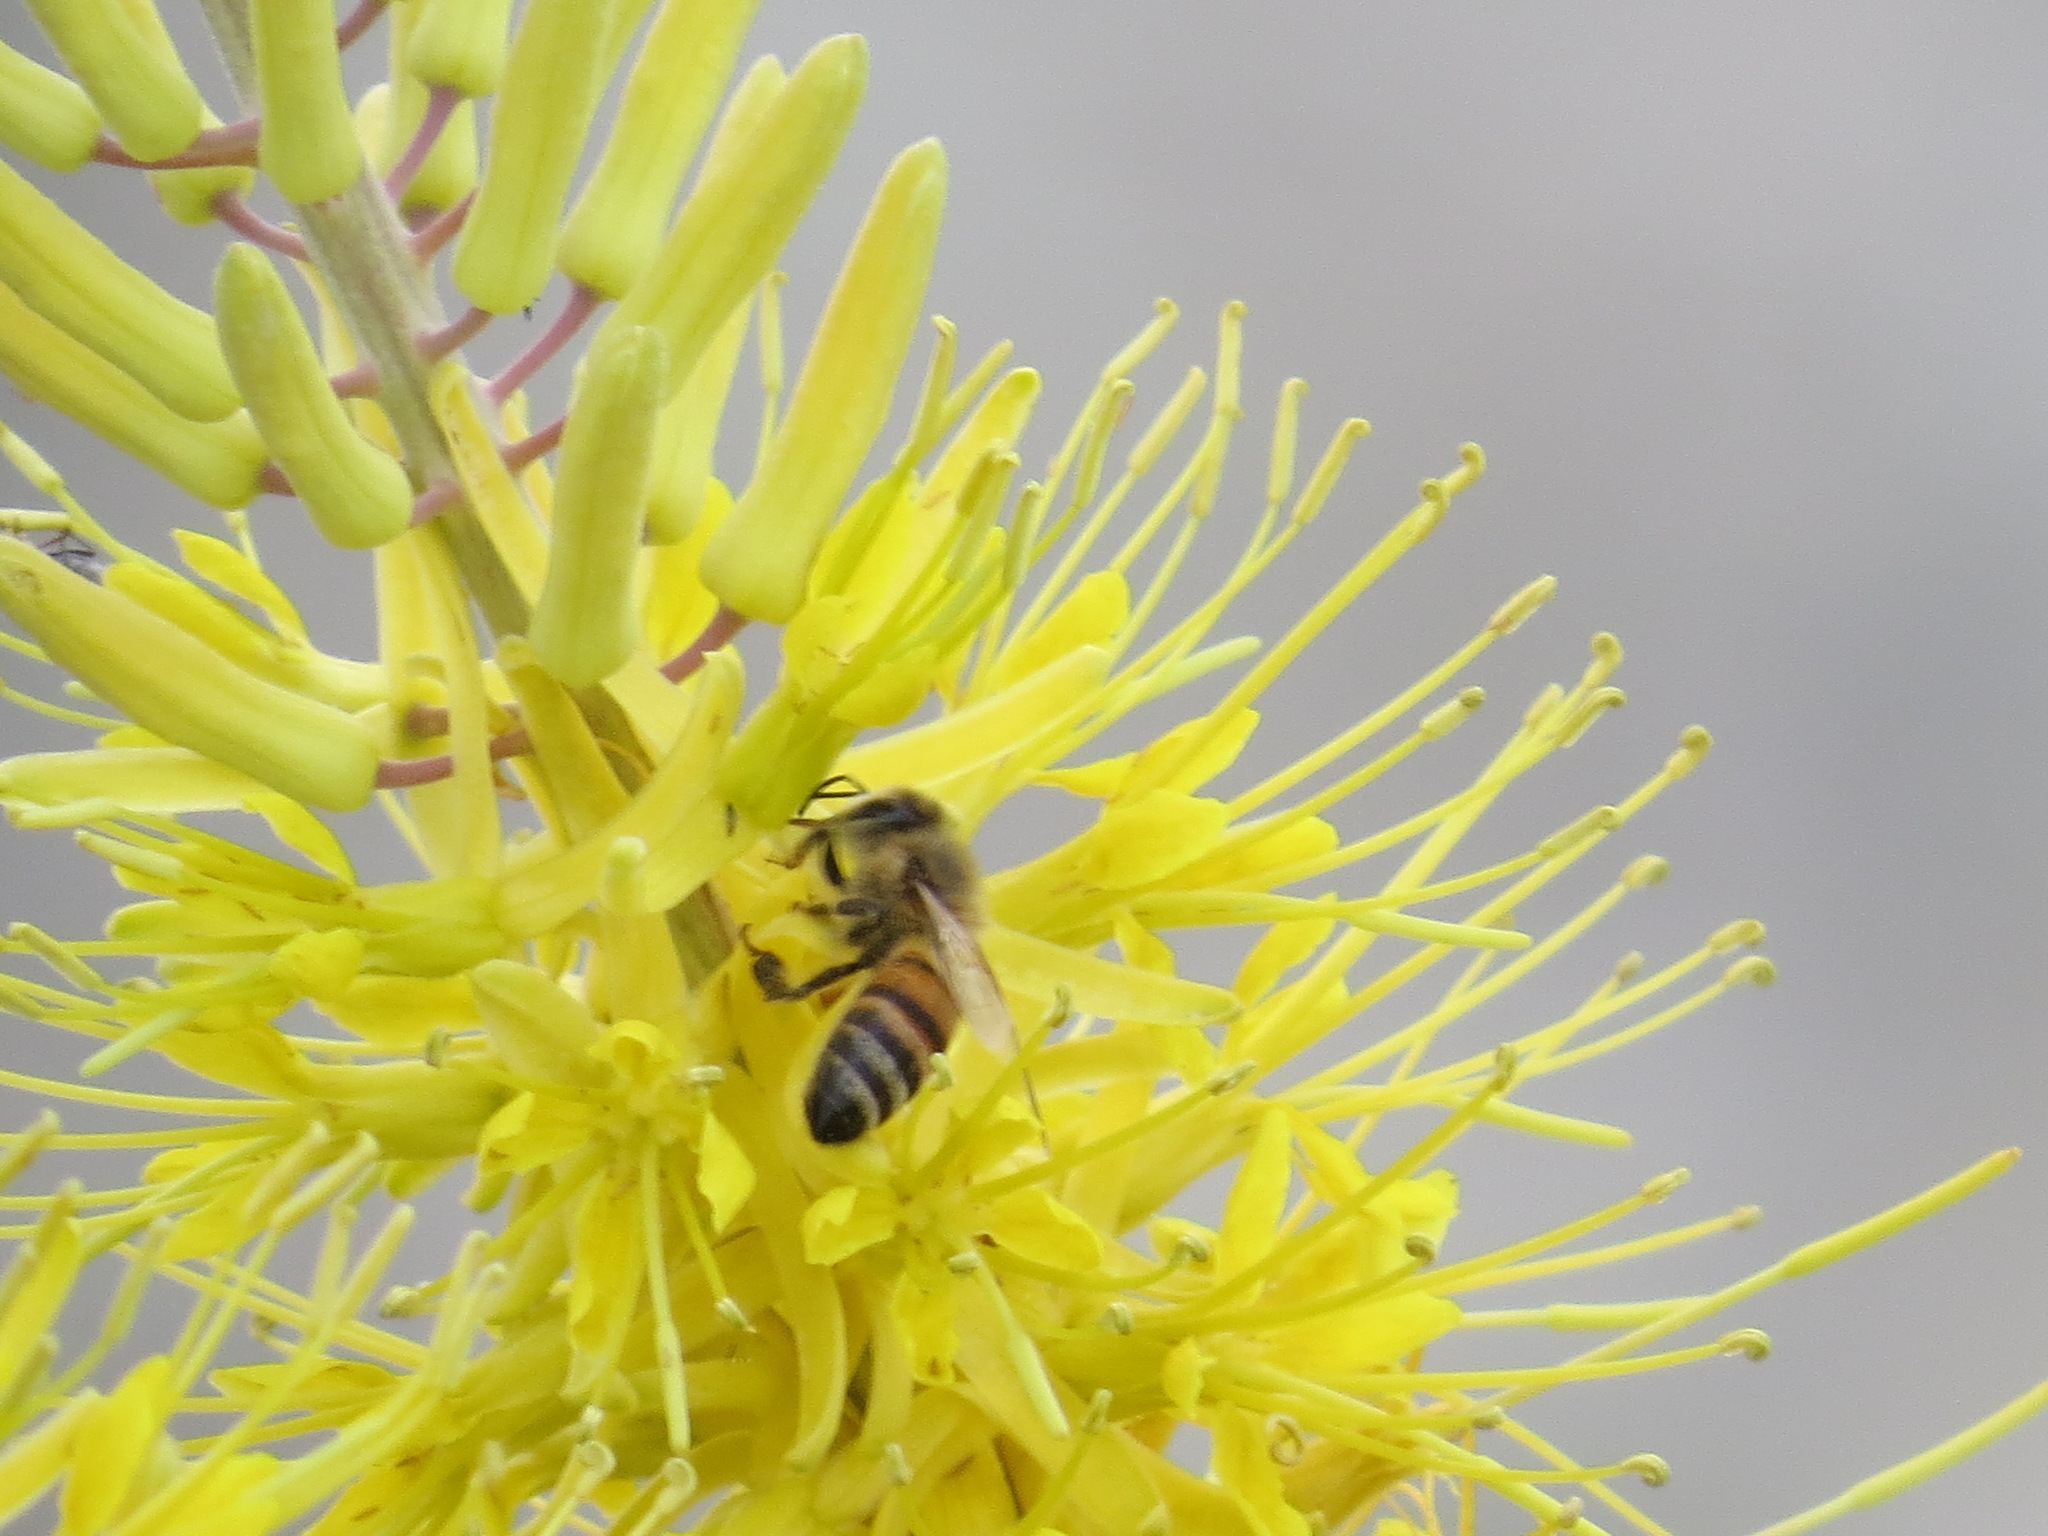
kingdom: Animalia
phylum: Arthropoda
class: Insecta
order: Hymenoptera
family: Apidae
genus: Apis
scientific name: Apis mellifera
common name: Honey bee
